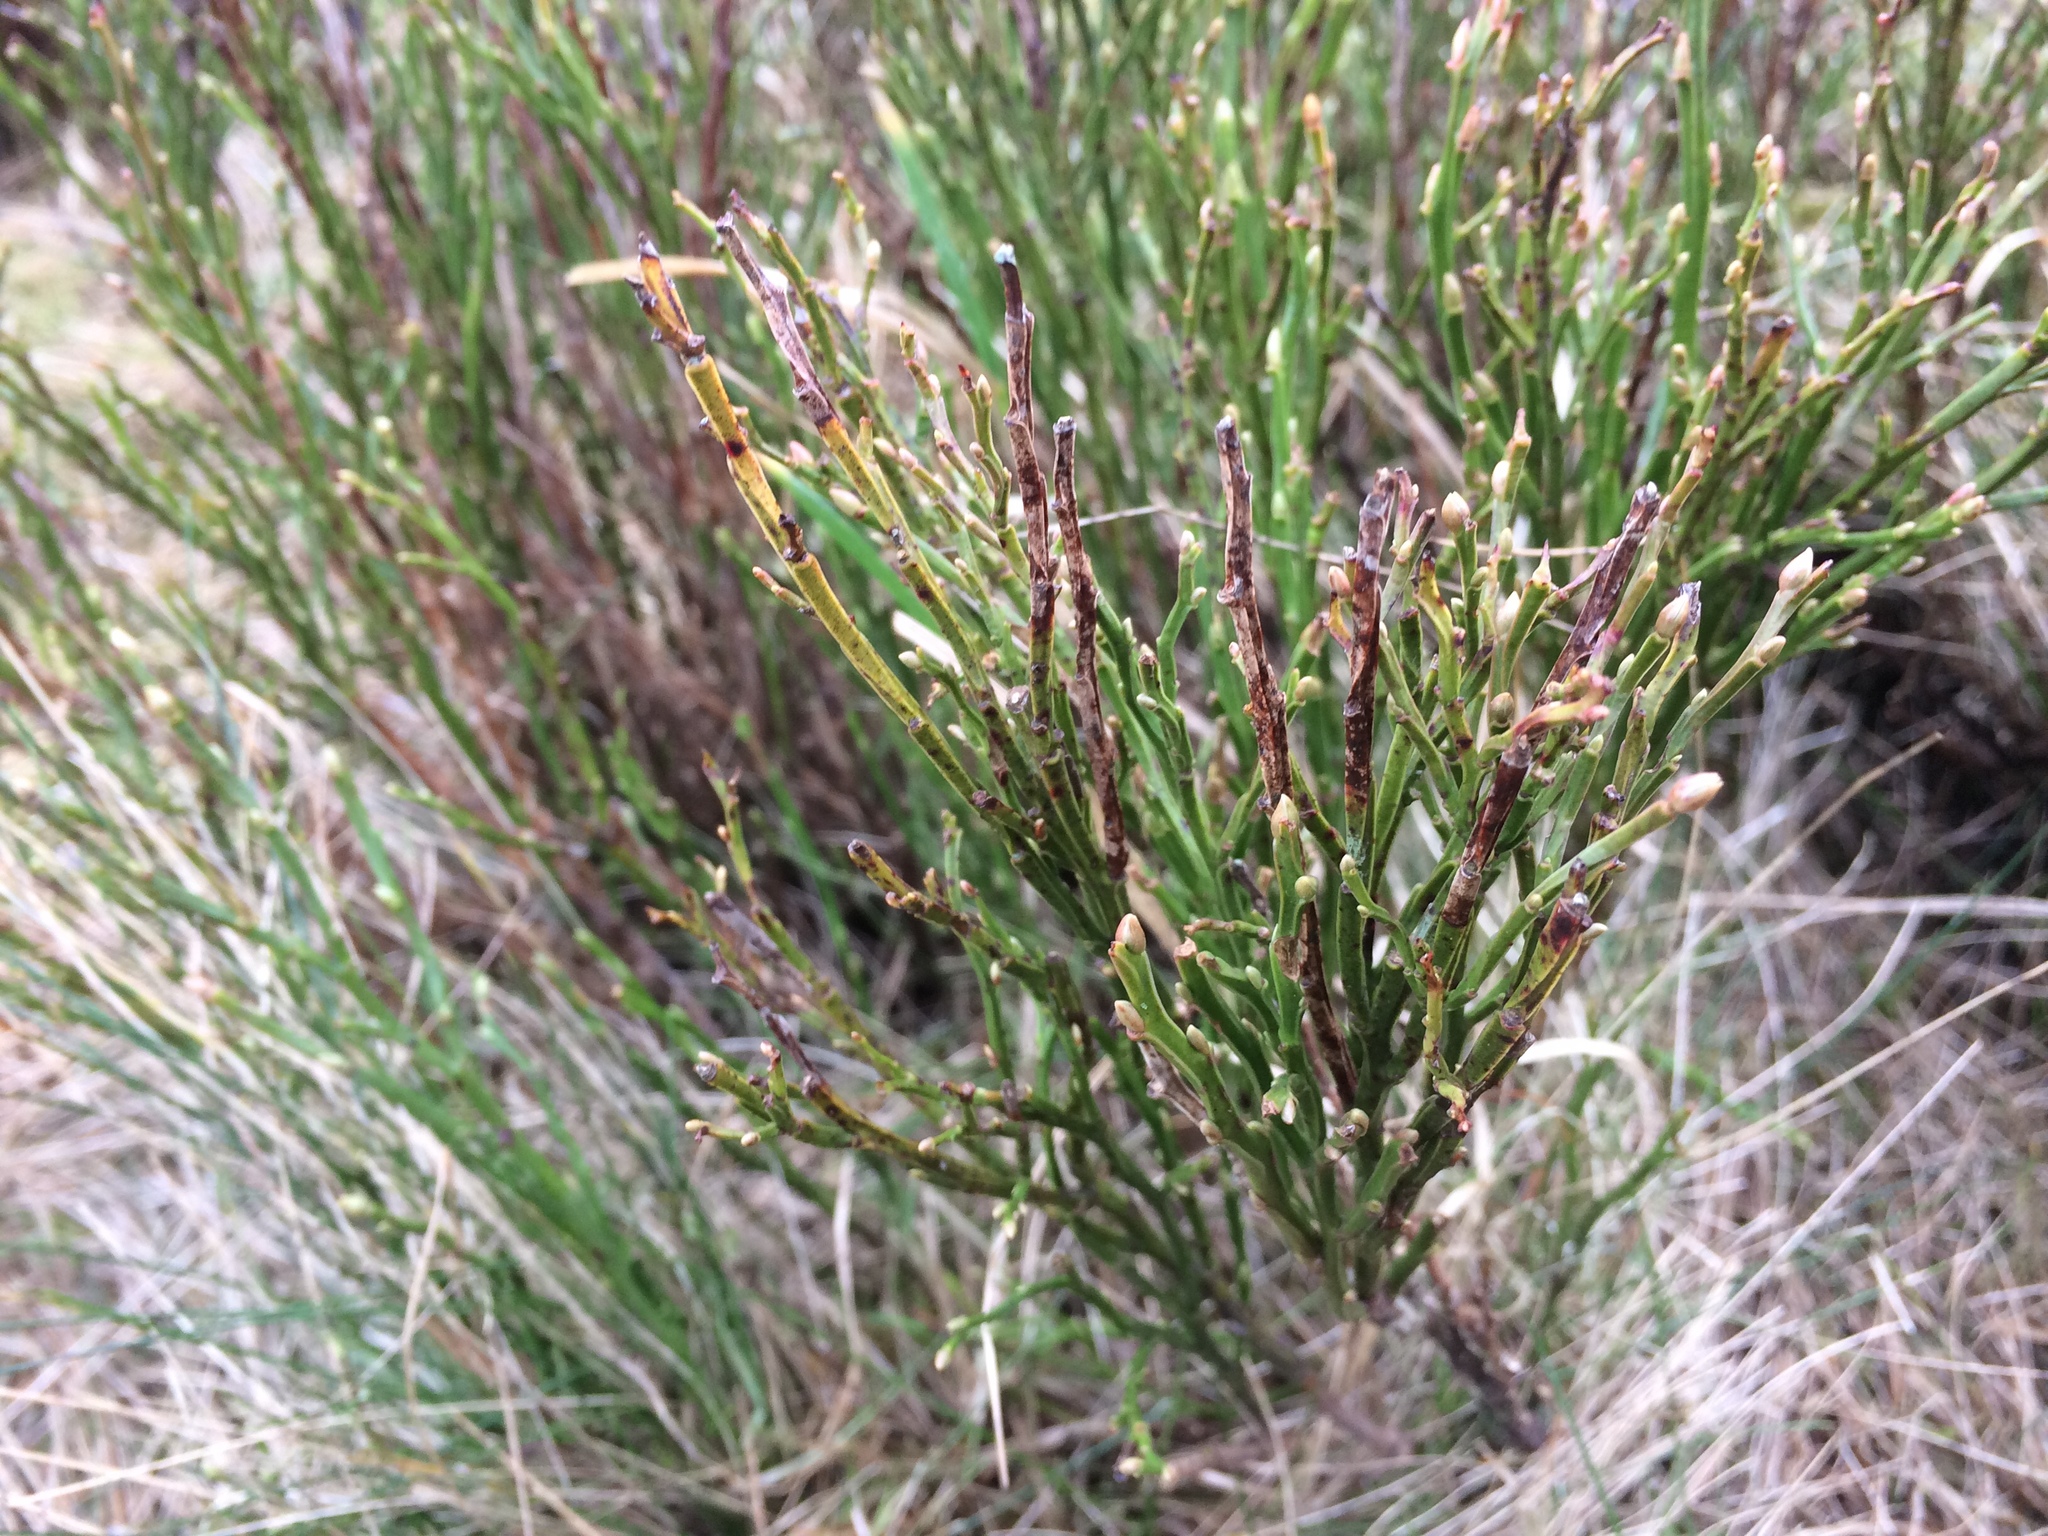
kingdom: Plantae
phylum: Tracheophyta
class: Magnoliopsida
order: Ericales
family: Ericaceae
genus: Vaccinium
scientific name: Vaccinium myrtillus
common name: Bilberry
